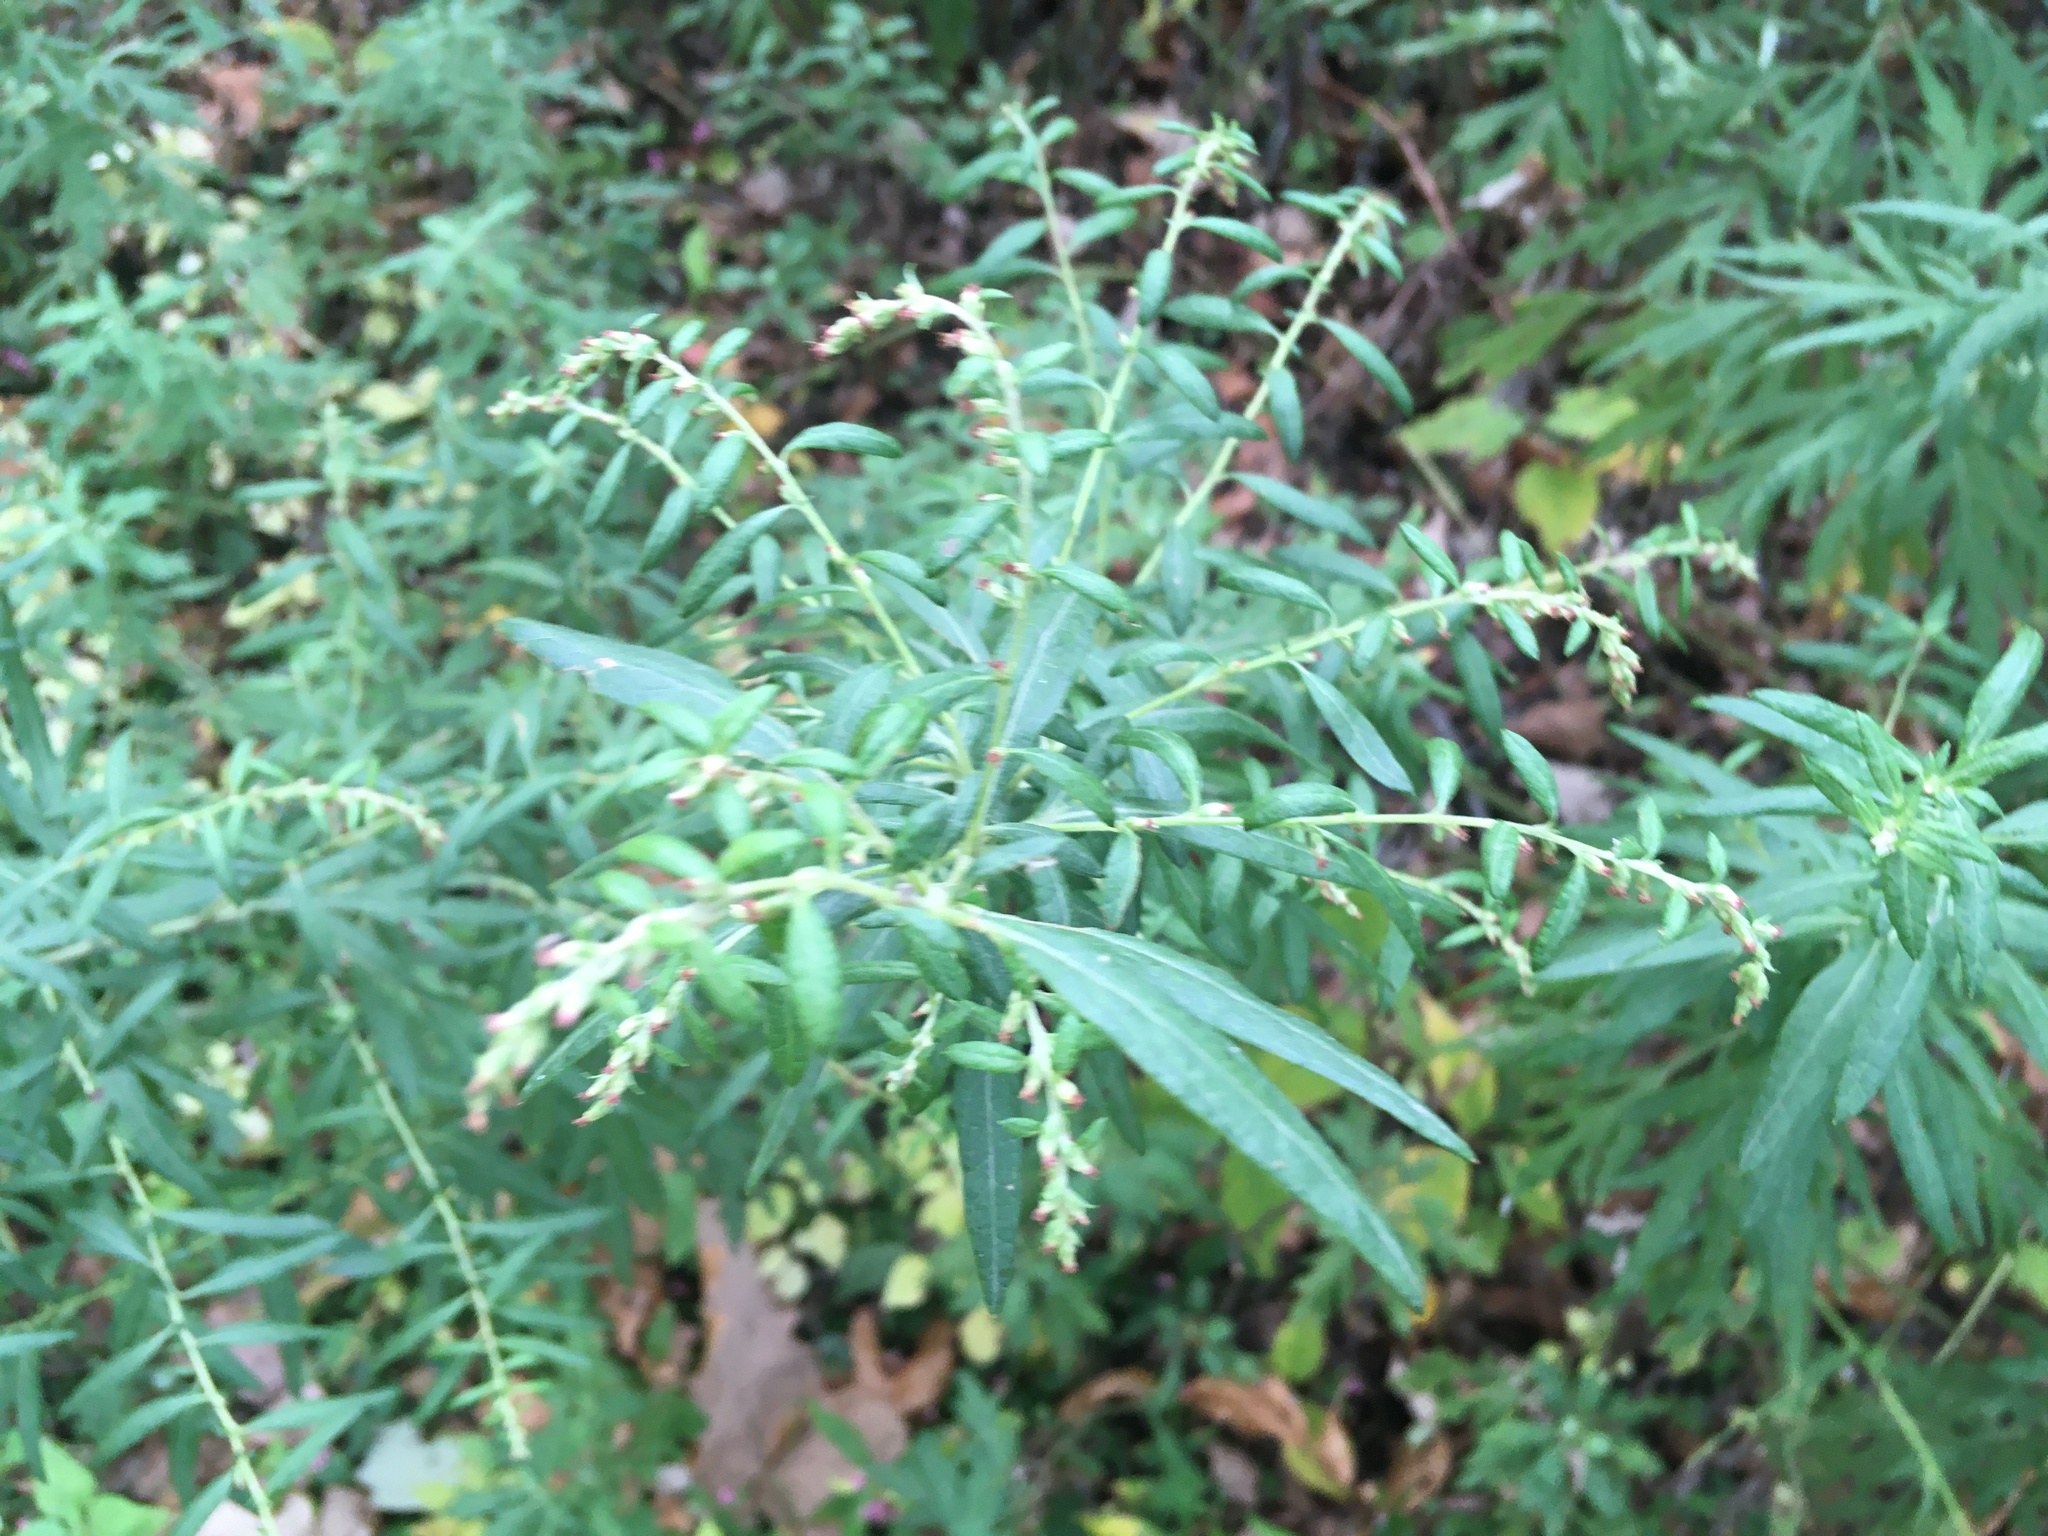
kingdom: Plantae
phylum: Tracheophyta
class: Magnoliopsida
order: Asterales
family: Asteraceae
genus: Artemisia
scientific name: Artemisia vulgaris
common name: Mugwort
